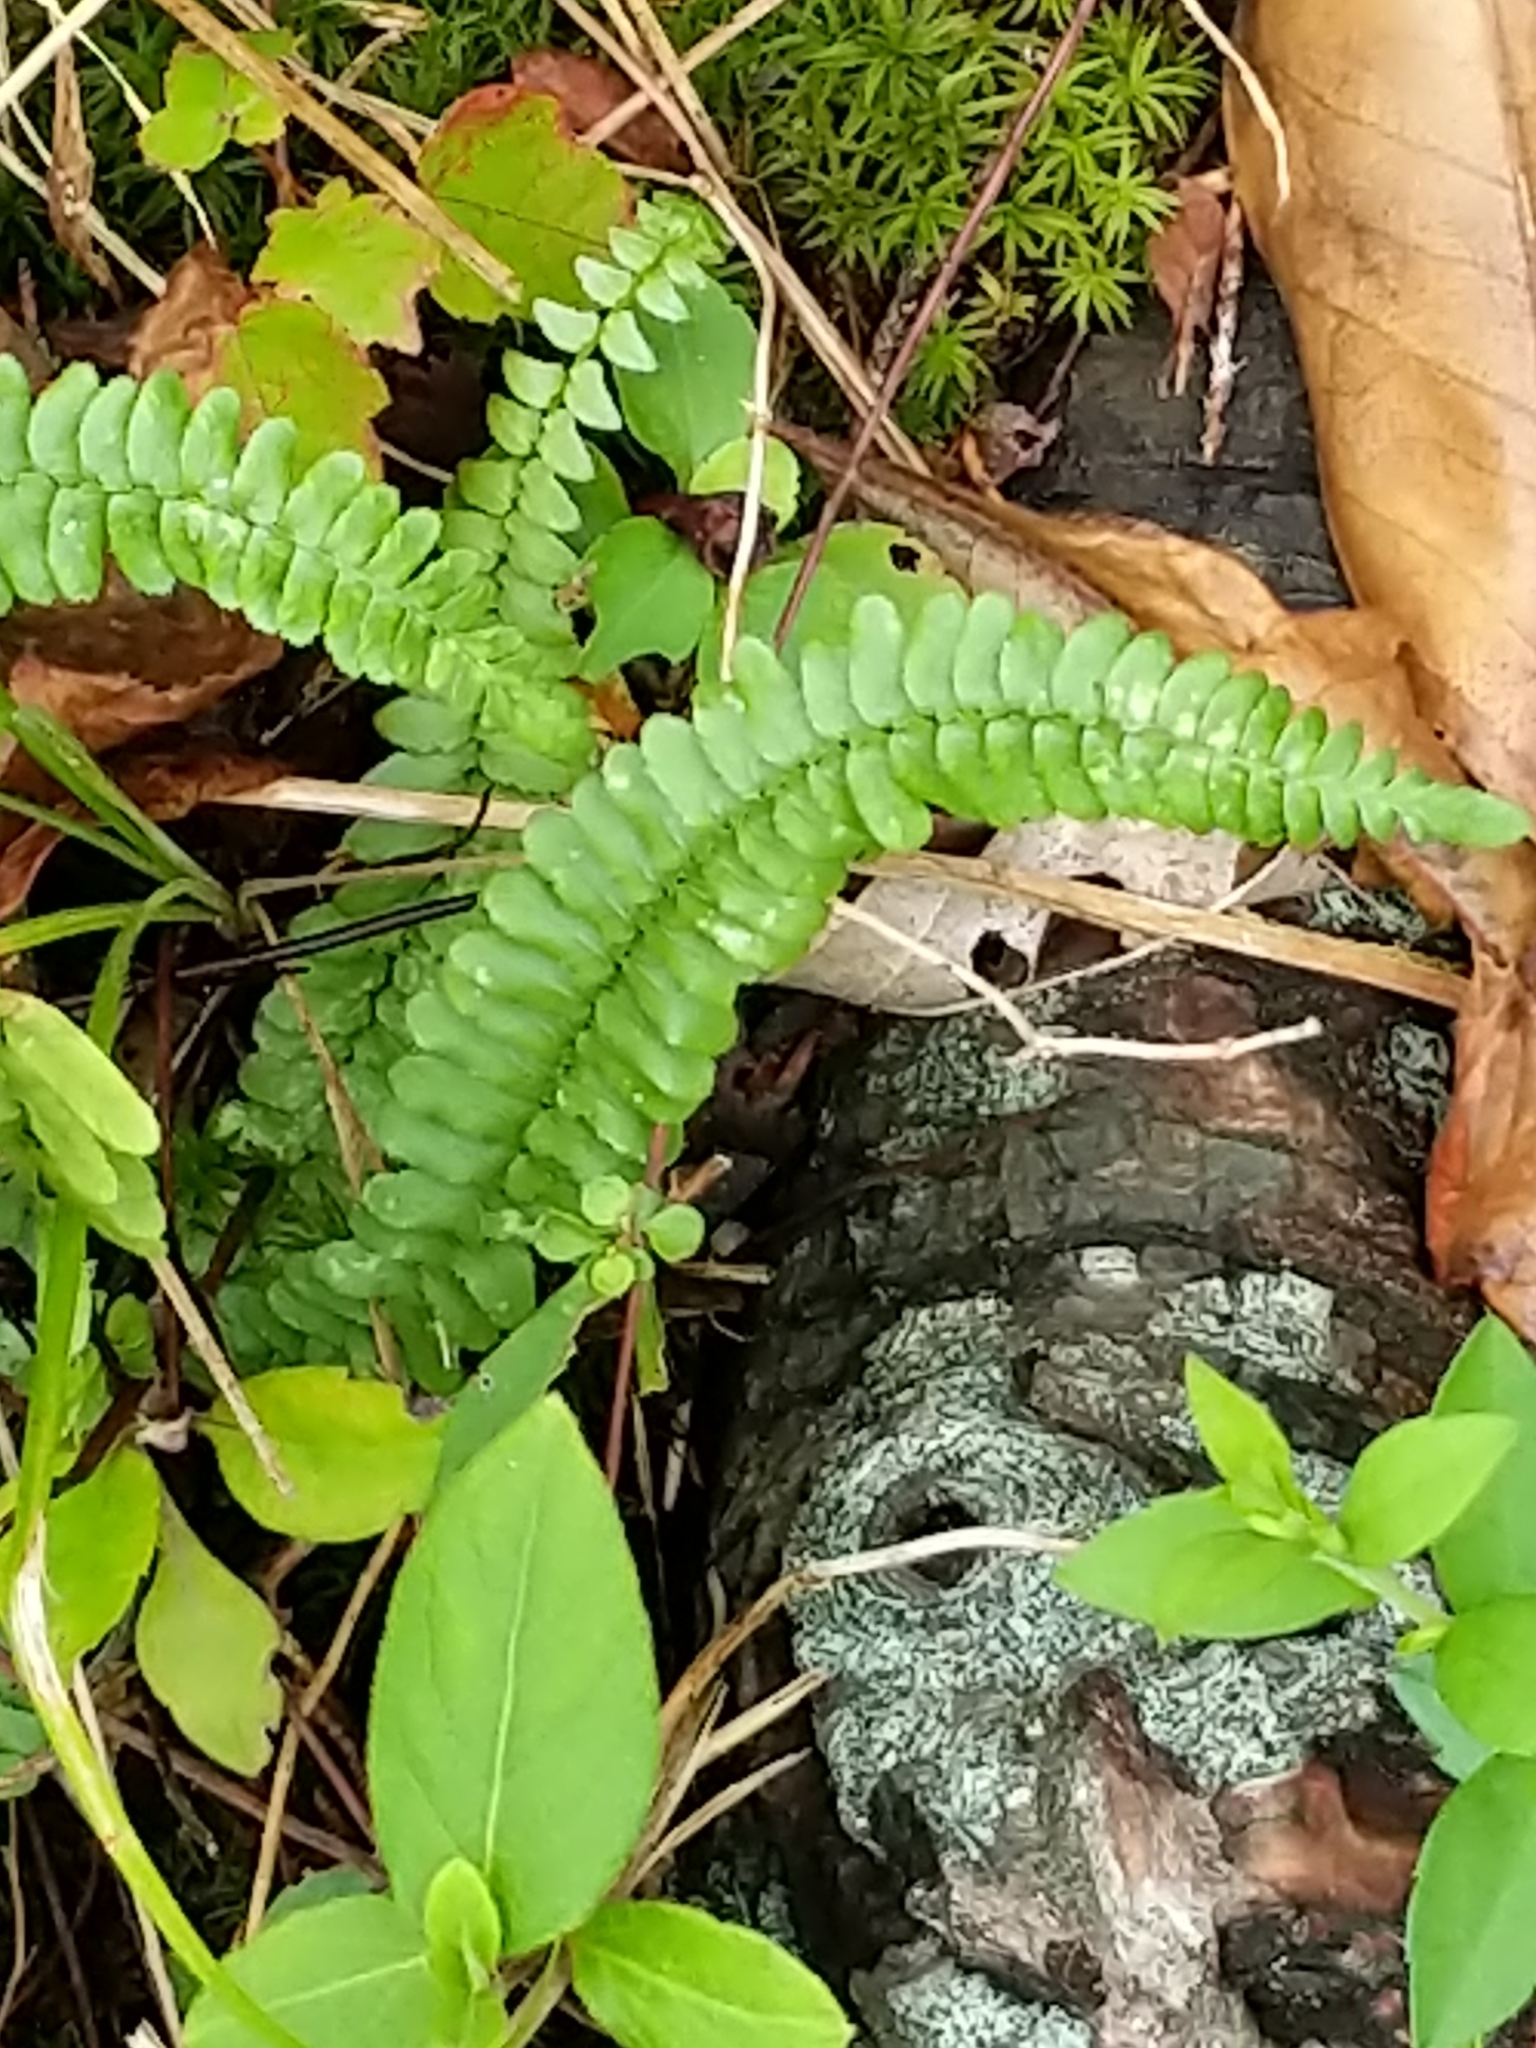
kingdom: Plantae
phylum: Tracheophyta
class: Polypodiopsida
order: Polypodiales
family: Aspleniaceae
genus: Asplenium
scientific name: Asplenium platyneuron
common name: Ebony spleenwort
